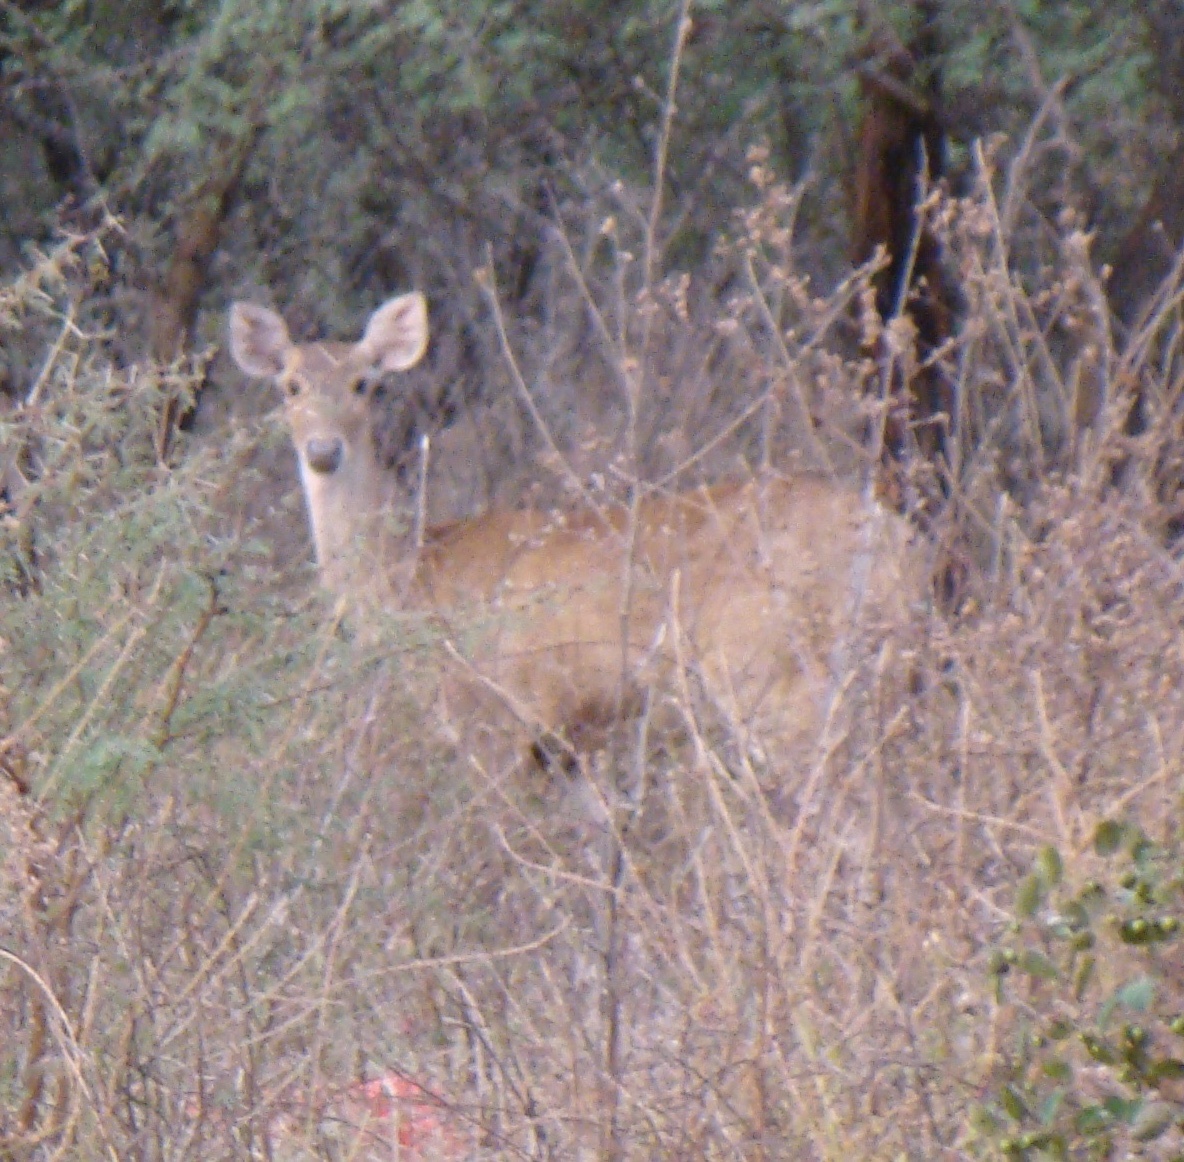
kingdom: Animalia
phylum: Chordata
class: Mammalia
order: Artiodactyla
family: Cervidae
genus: Rusa
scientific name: Rusa timorensis
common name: Javan rusa
